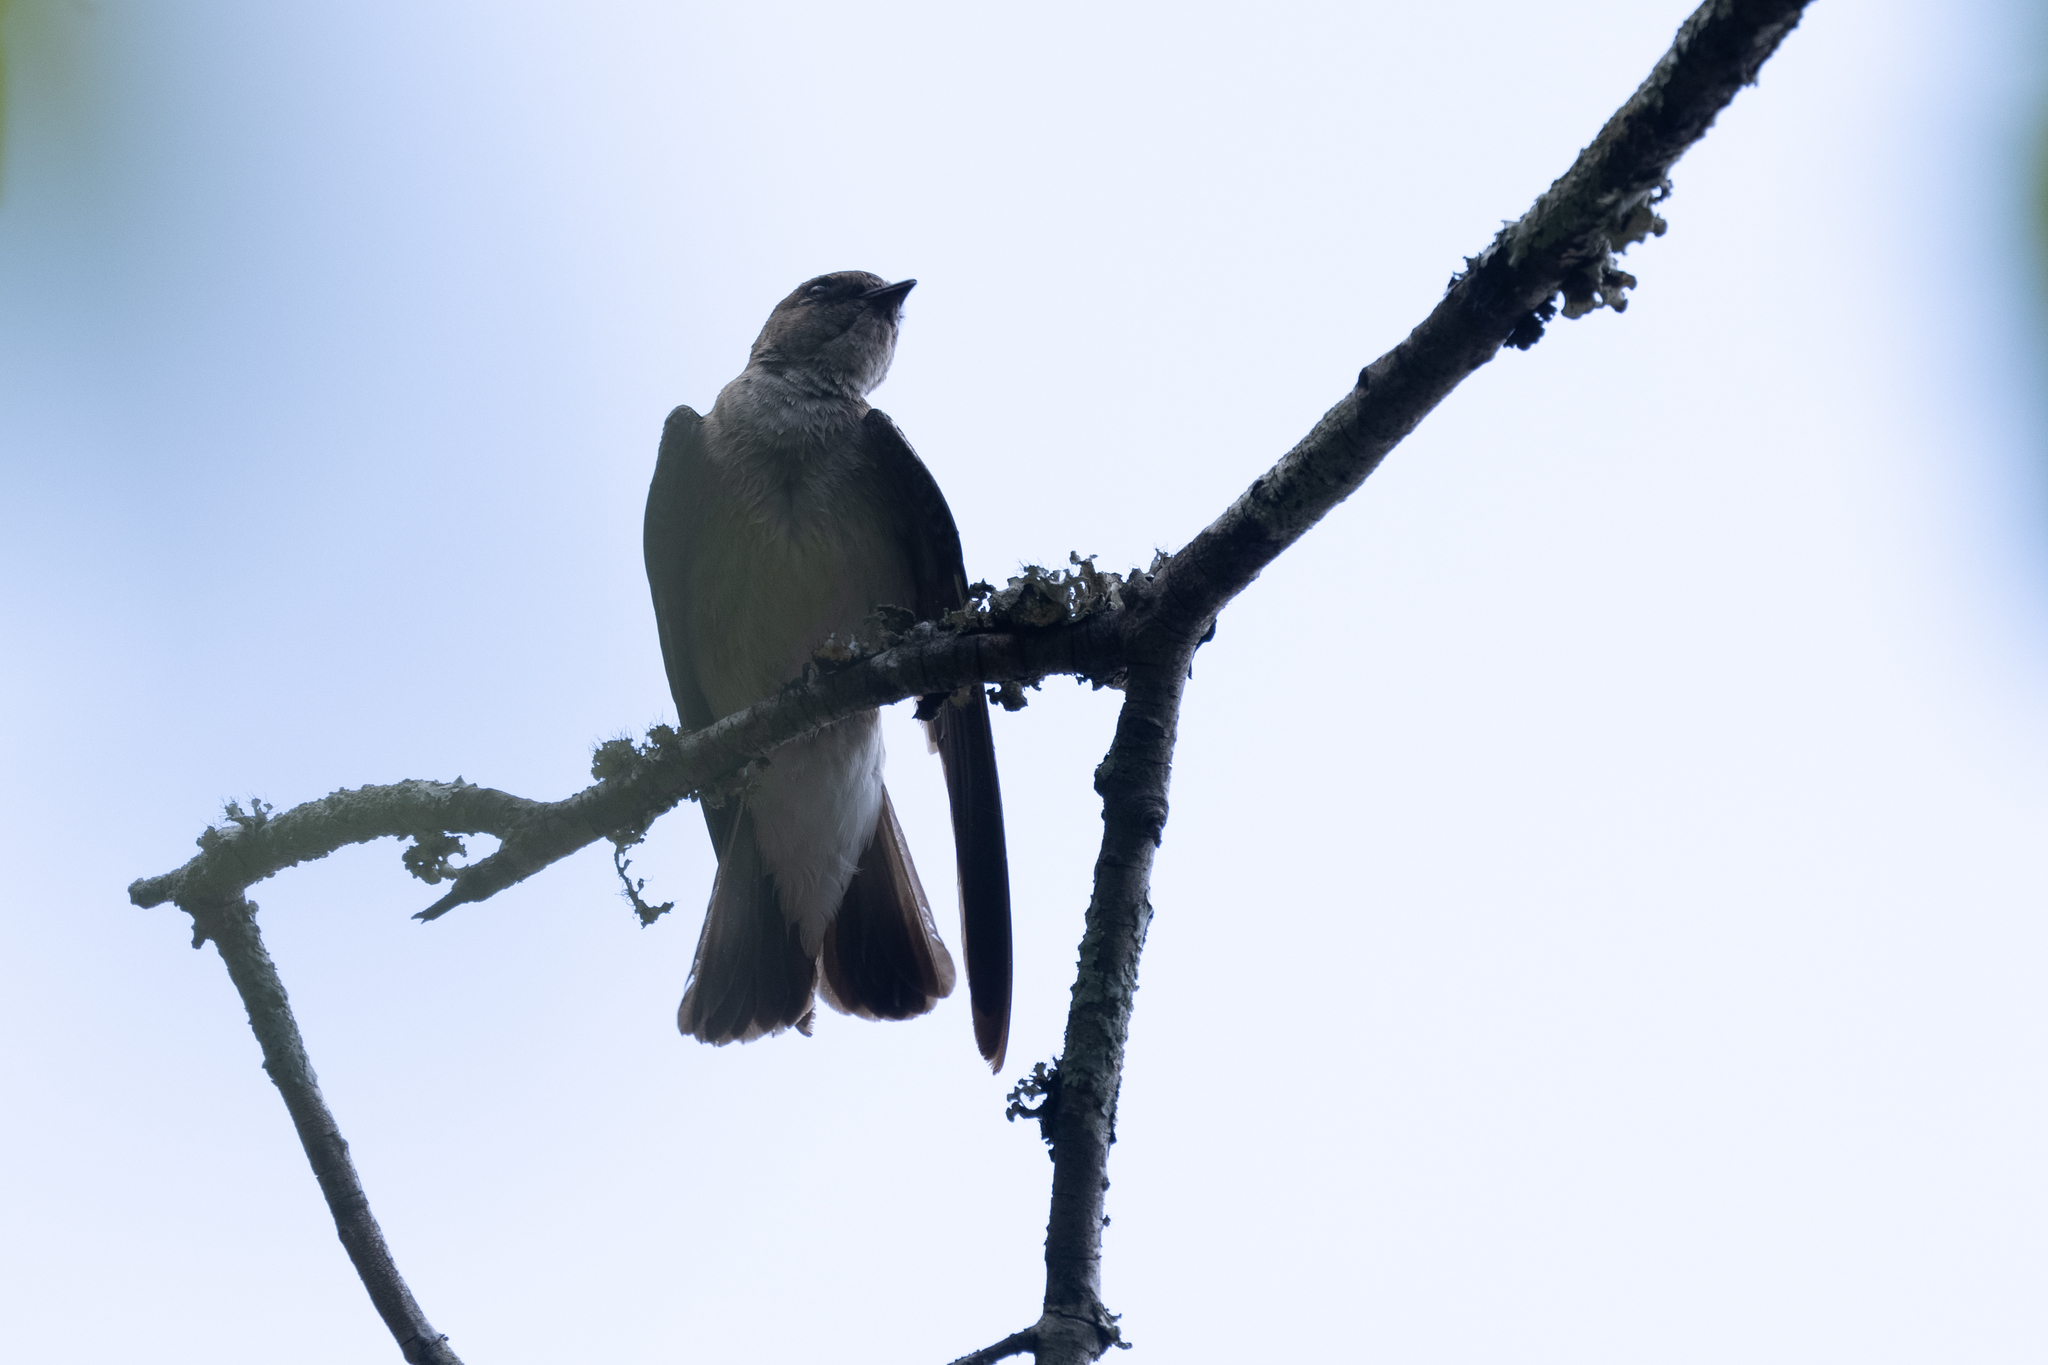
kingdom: Animalia
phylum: Chordata
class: Aves
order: Passeriformes
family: Hirundinidae
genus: Stelgidopteryx
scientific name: Stelgidopteryx serripennis
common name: Northern rough-winged swallow
